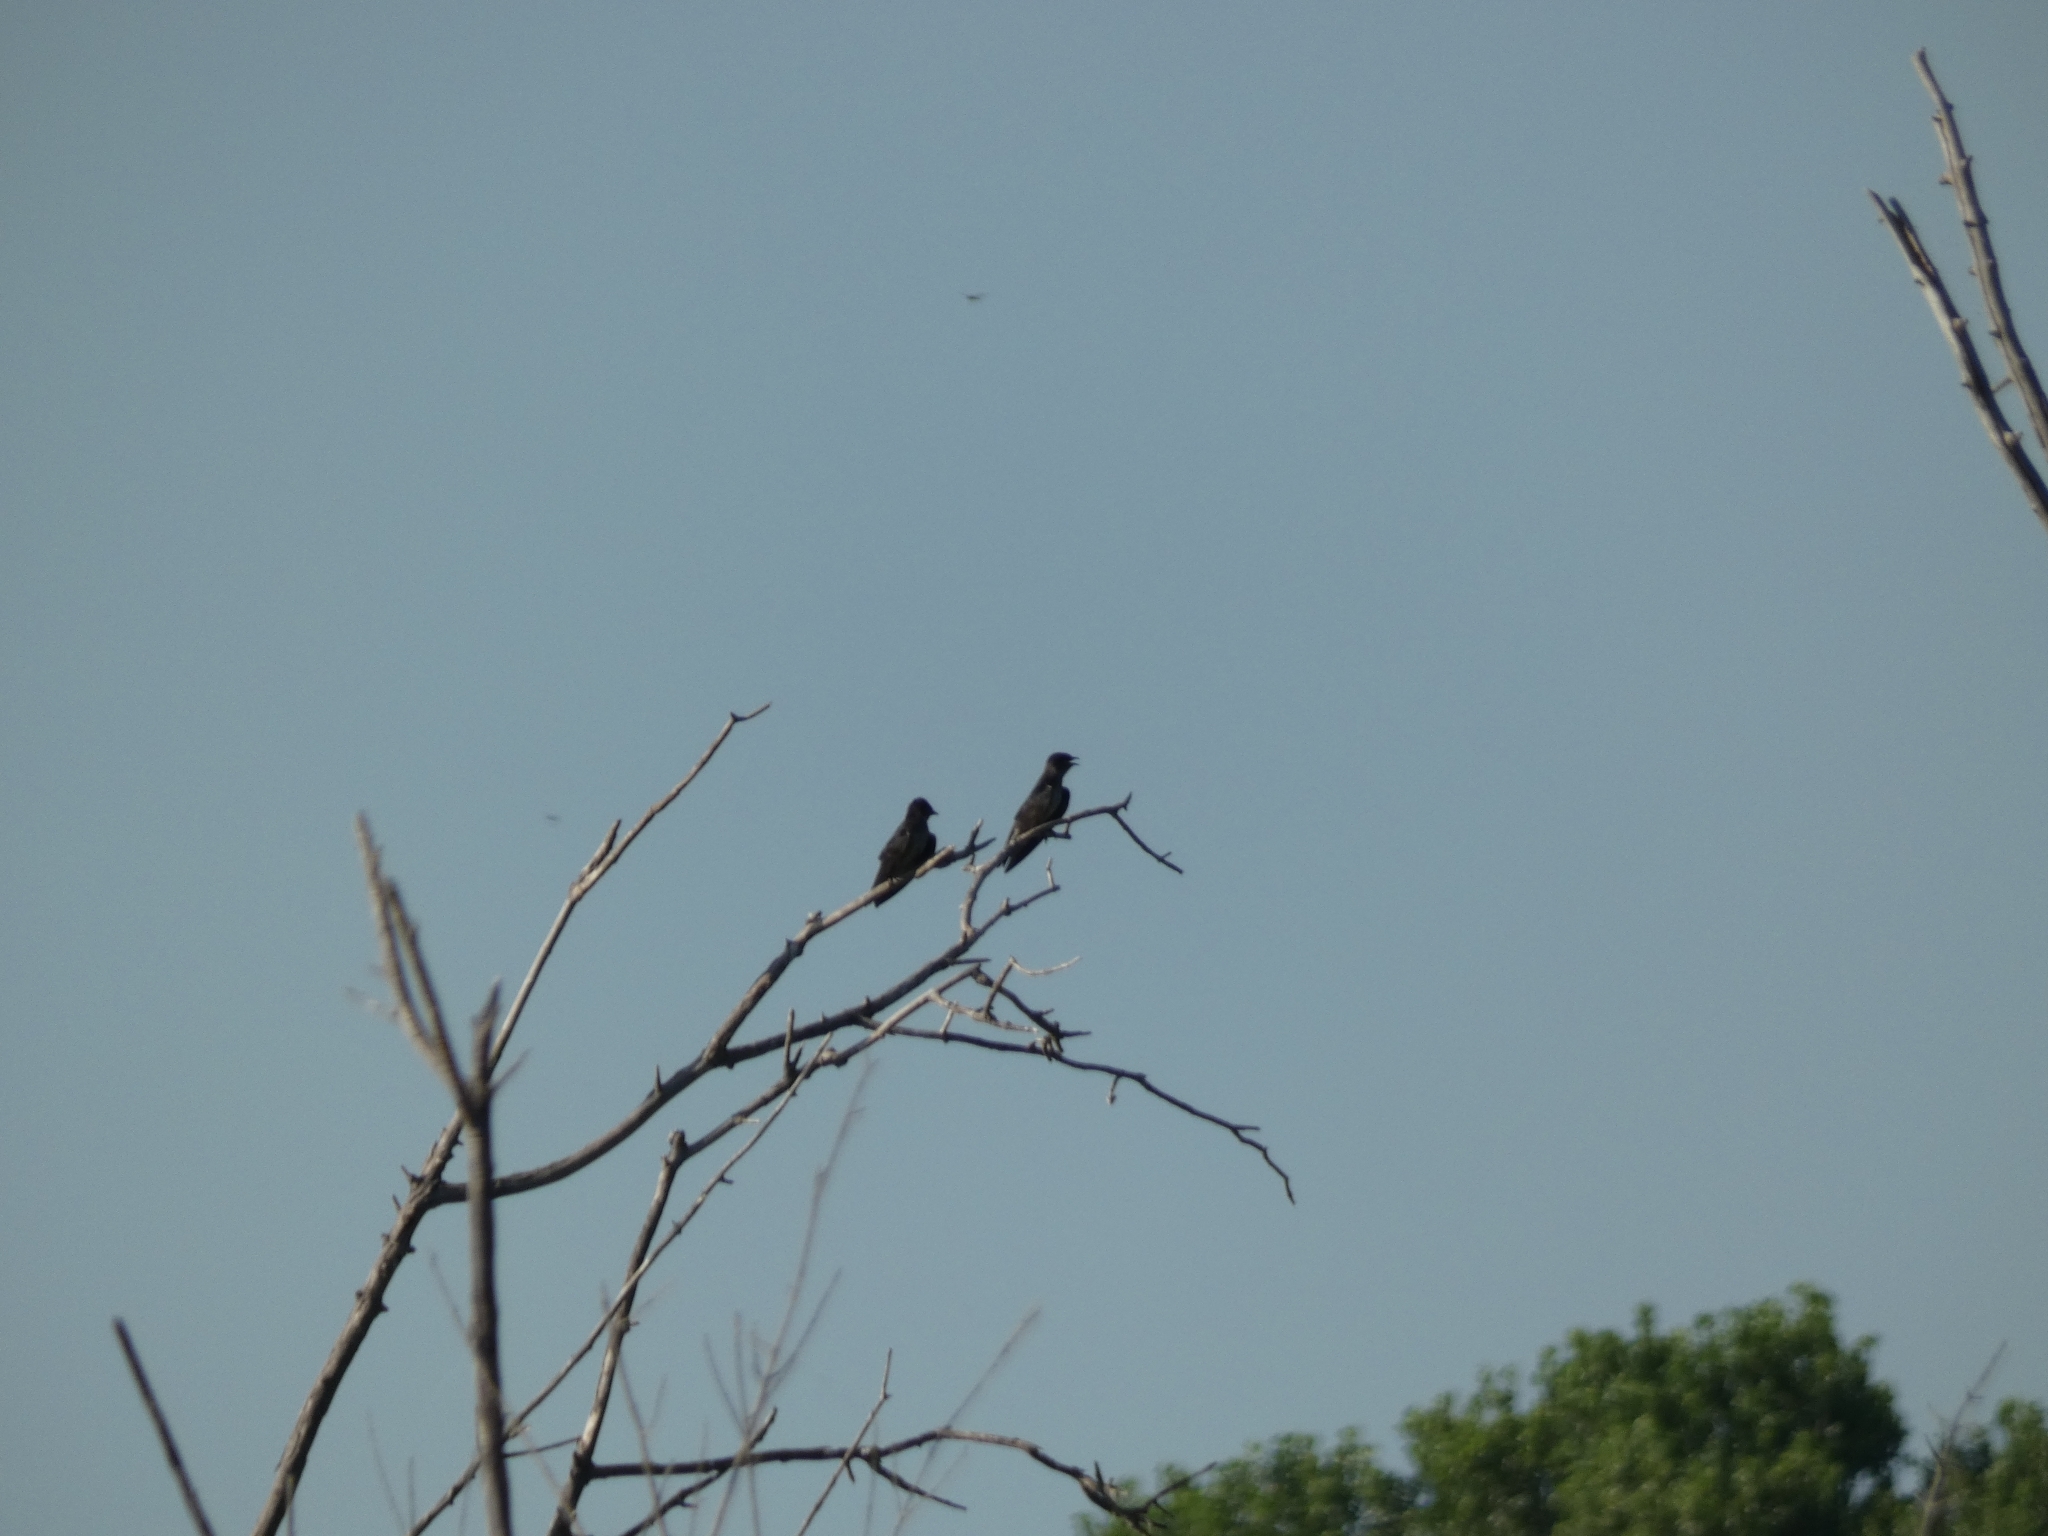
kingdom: Animalia
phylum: Chordata
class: Aves
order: Passeriformes
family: Hirundinidae
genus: Progne
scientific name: Progne subis
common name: Purple martin
